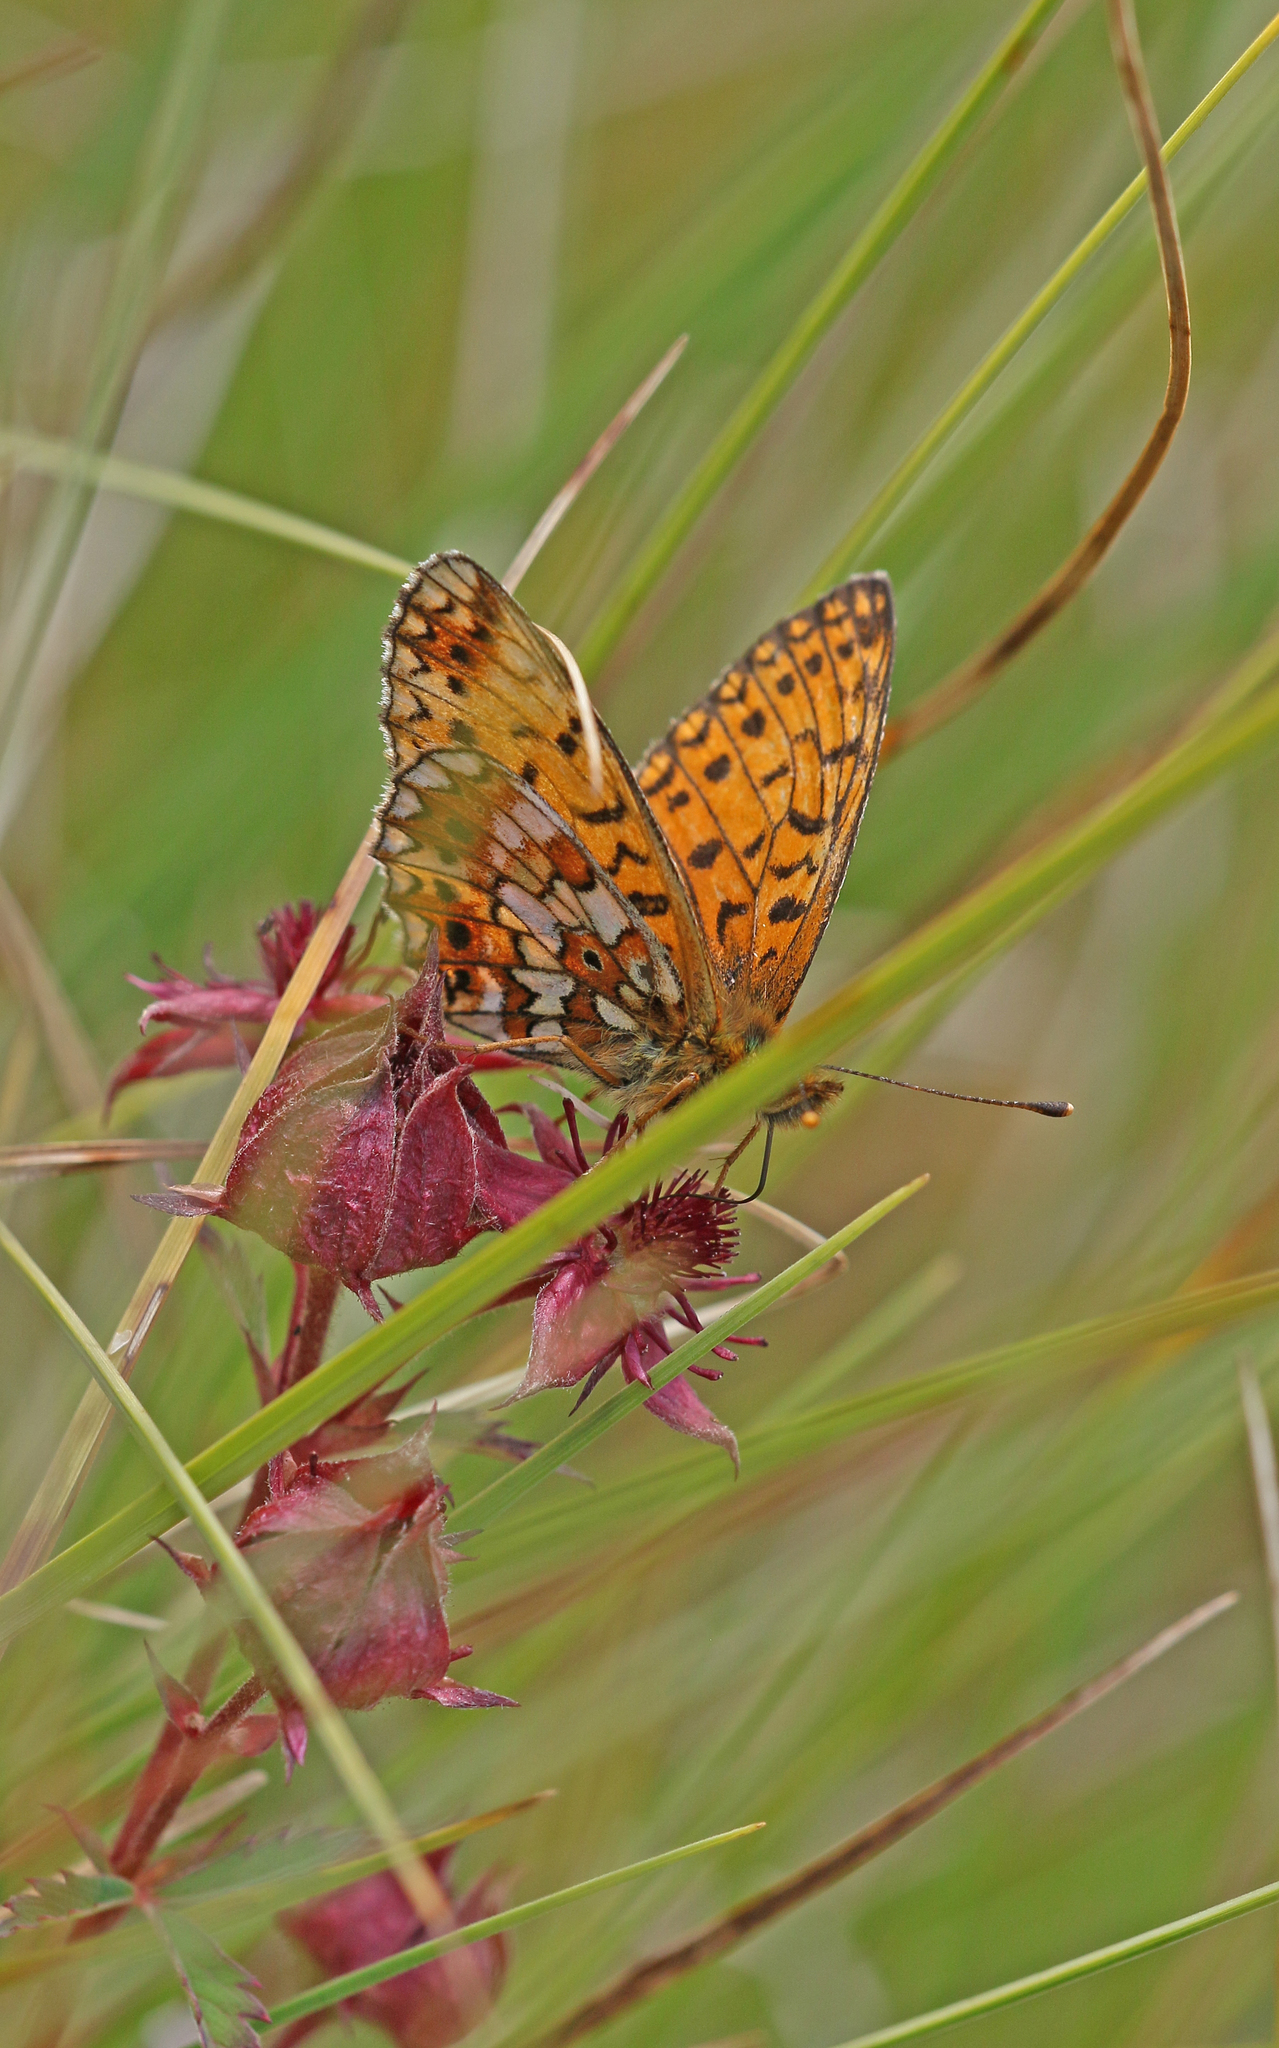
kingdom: Animalia
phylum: Arthropoda
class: Insecta
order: Lepidoptera
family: Nymphalidae
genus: Boloria
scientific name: Boloria selene
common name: Small pearl-bordered fritillary
